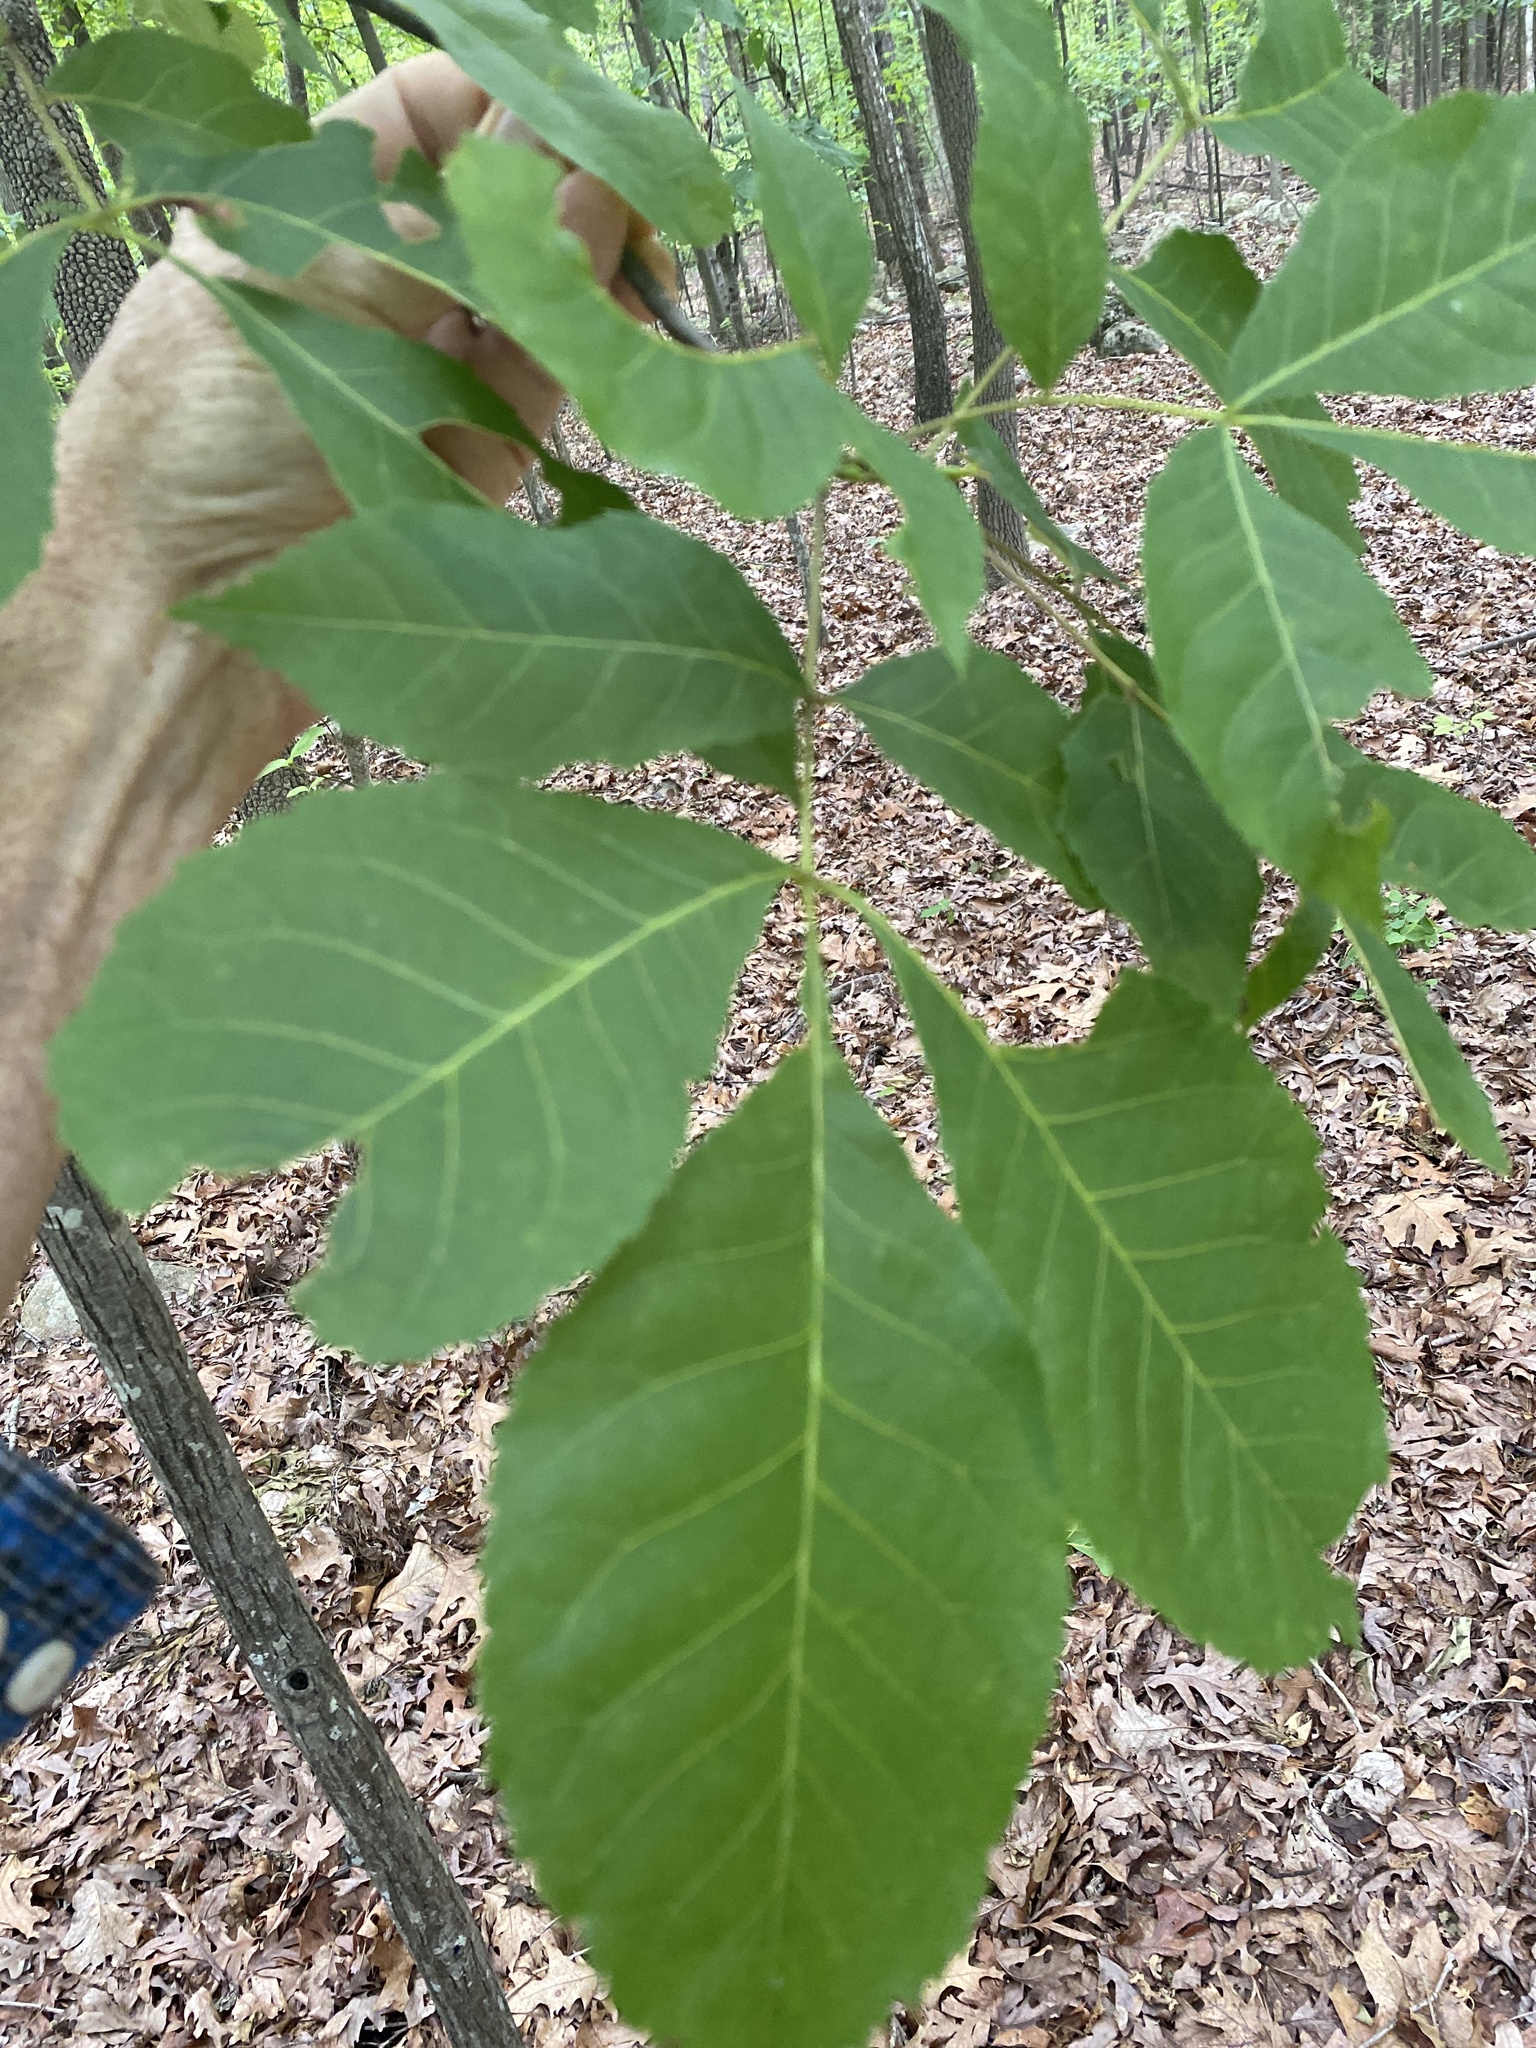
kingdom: Plantae
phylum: Tracheophyta
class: Magnoliopsida
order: Fagales
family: Juglandaceae
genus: Carya
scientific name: Carya glabra
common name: Pignut hickory
